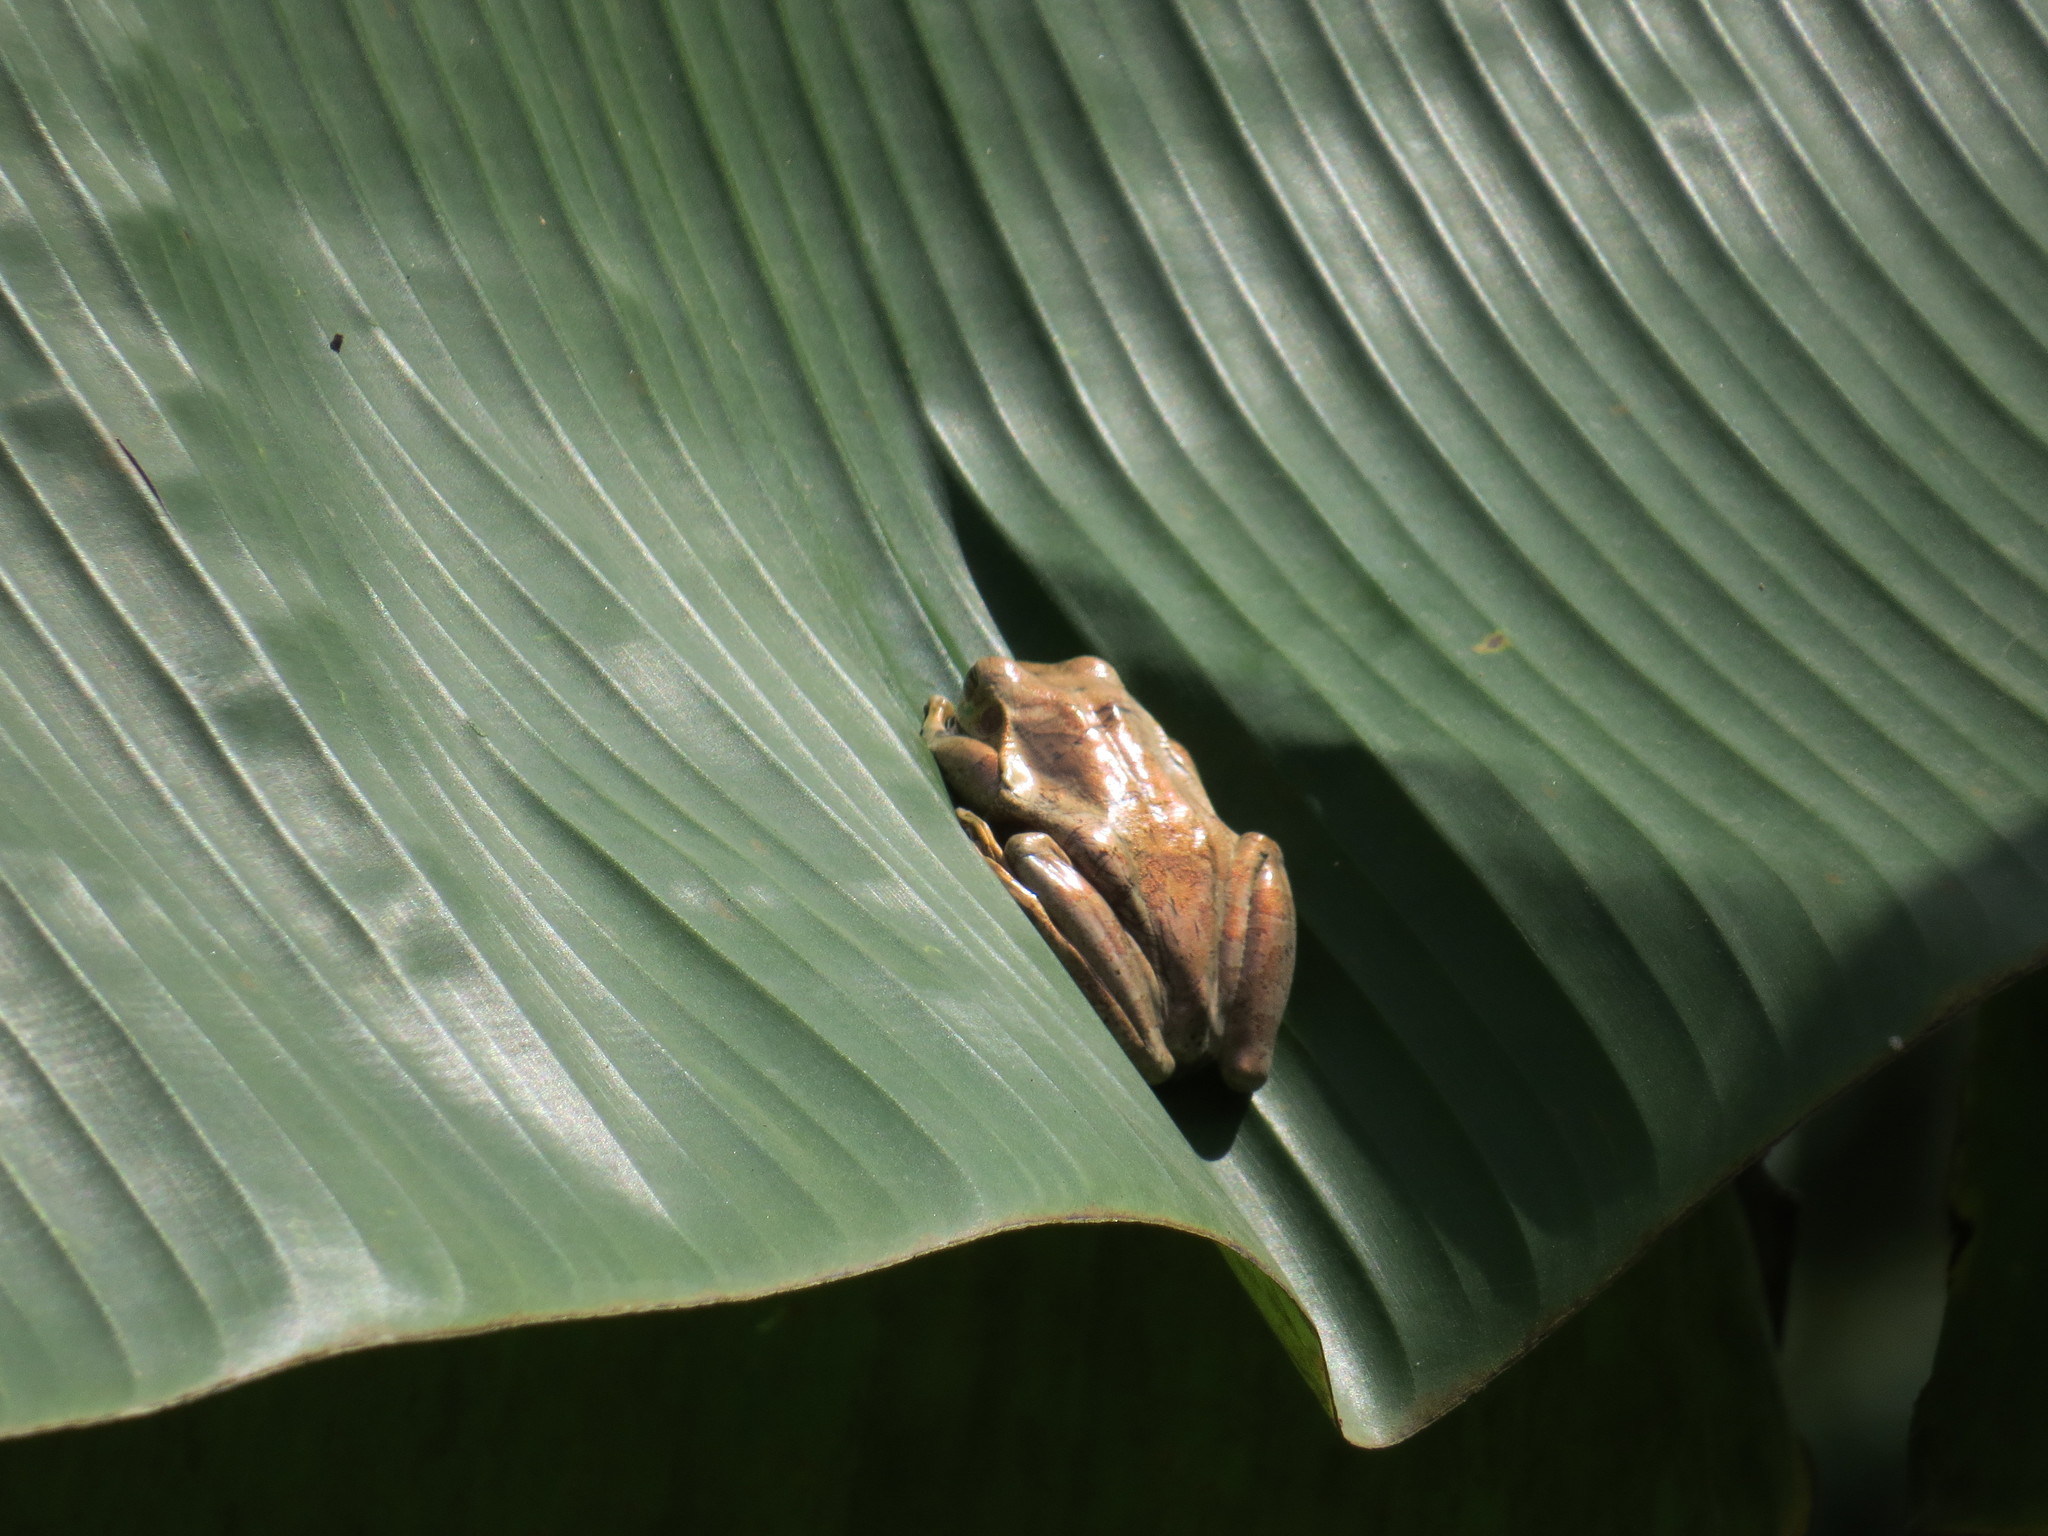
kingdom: Animalia
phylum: Chordata
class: Amphibia
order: Anura
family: Hylidae
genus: Smilisca
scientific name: Smilisca phaeota
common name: Central american smilisca
